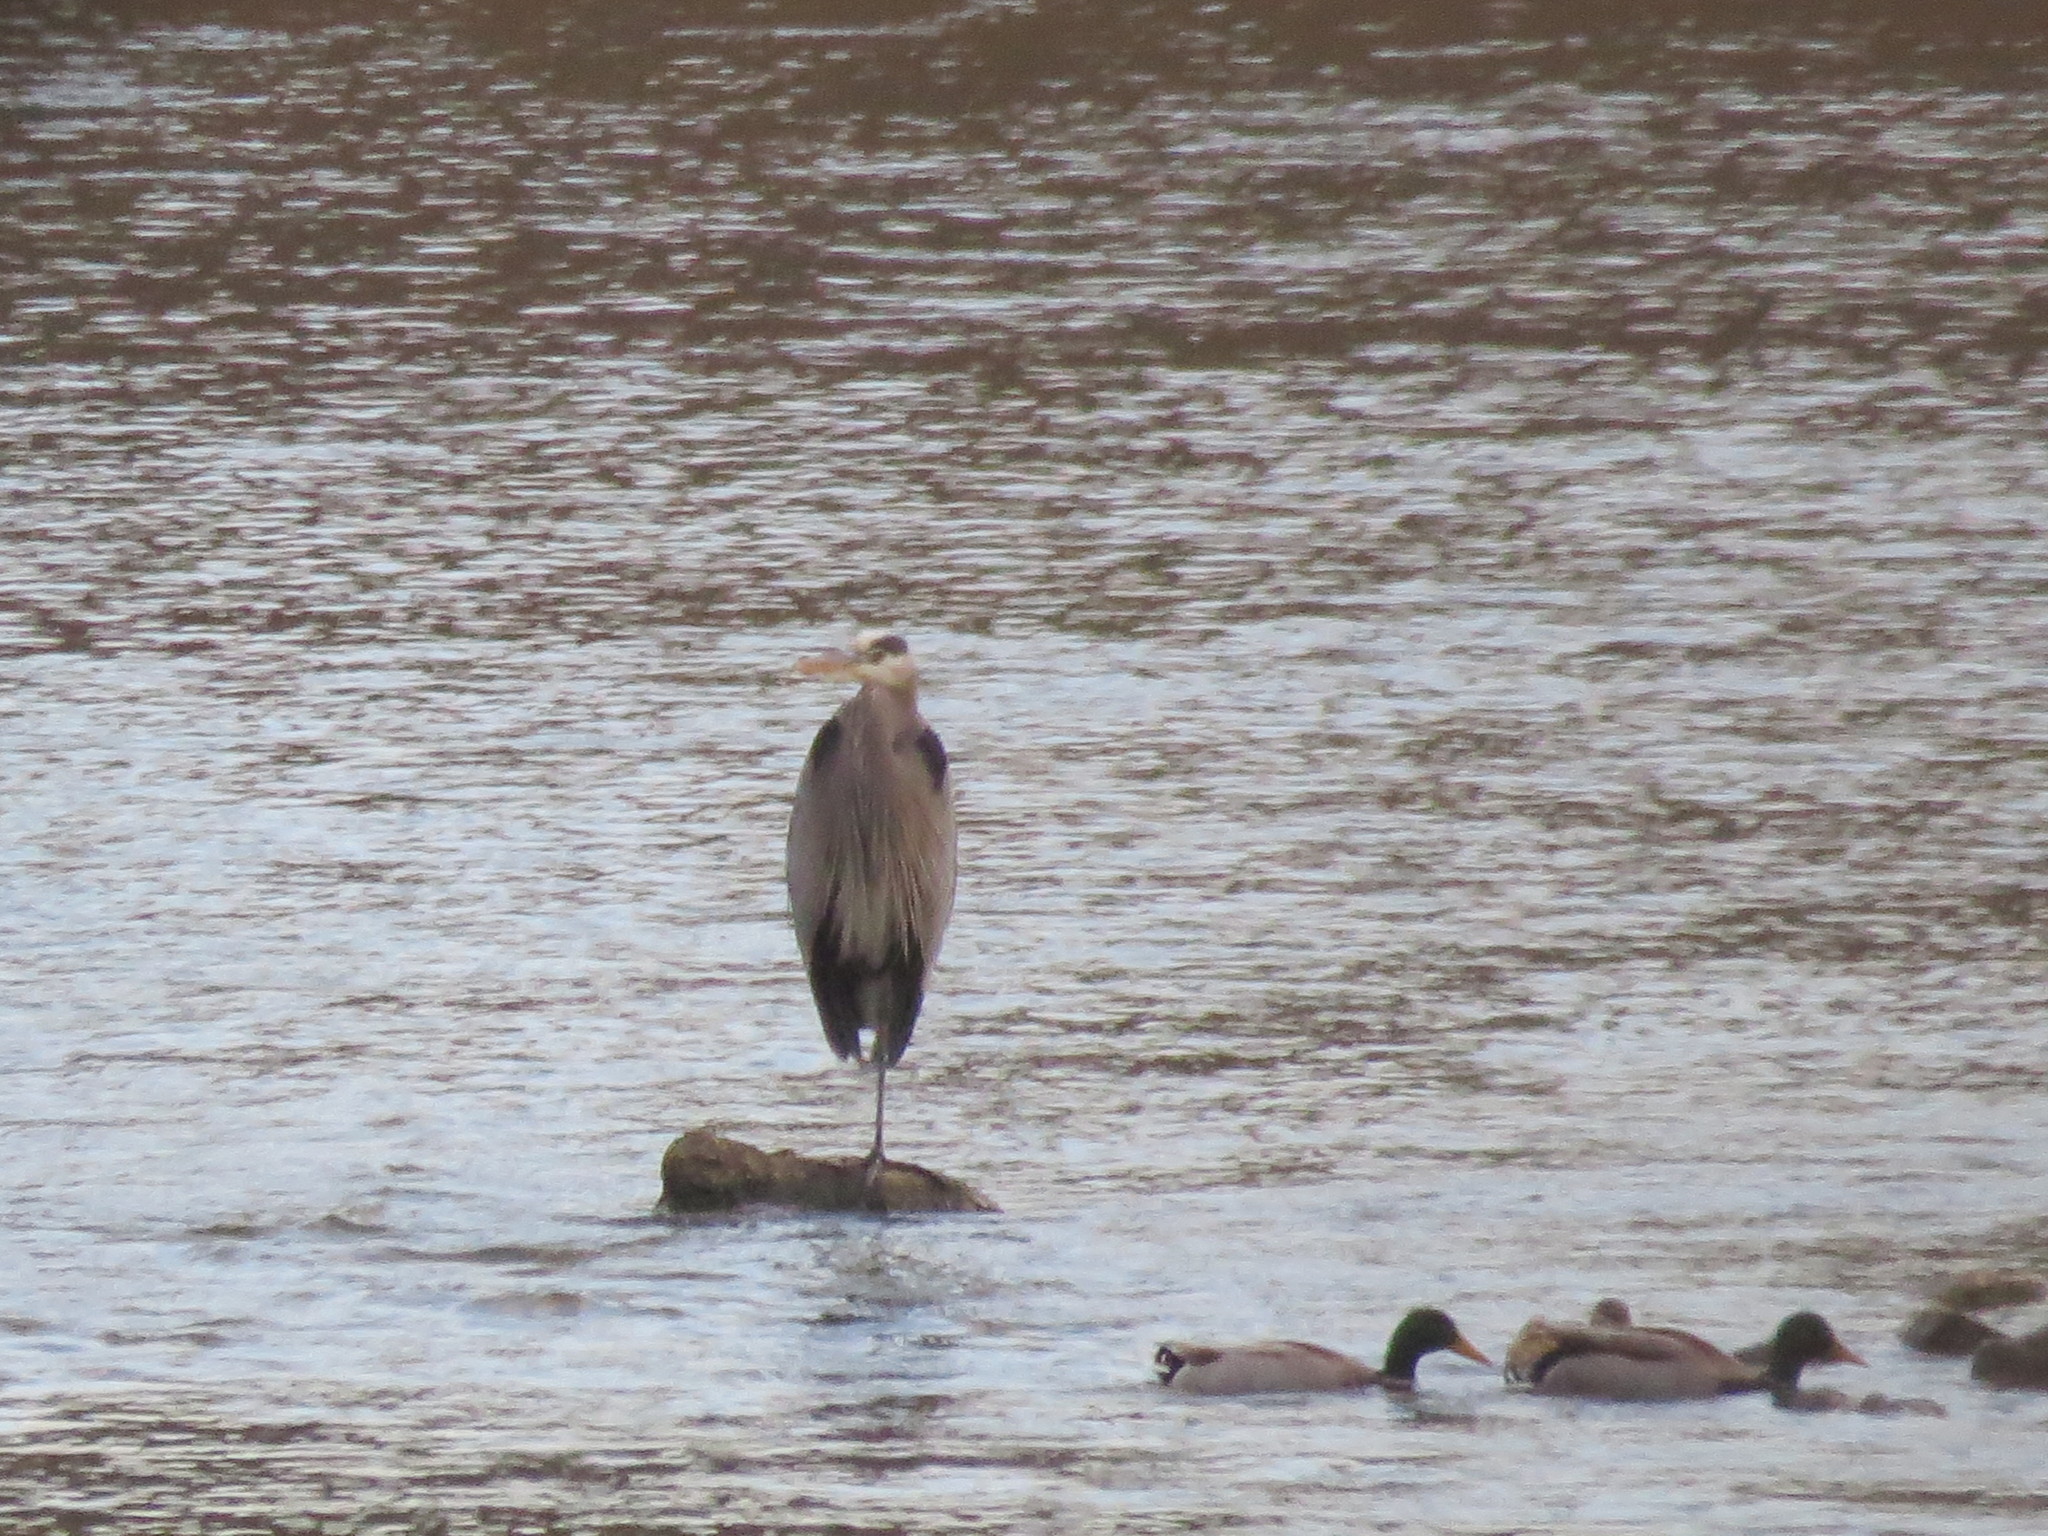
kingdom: Animalia
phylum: Chordata
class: Aves
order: Pelecaniformes
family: Ardeidae
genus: Ardea
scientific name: Ardea herodias
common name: Great blue heron
